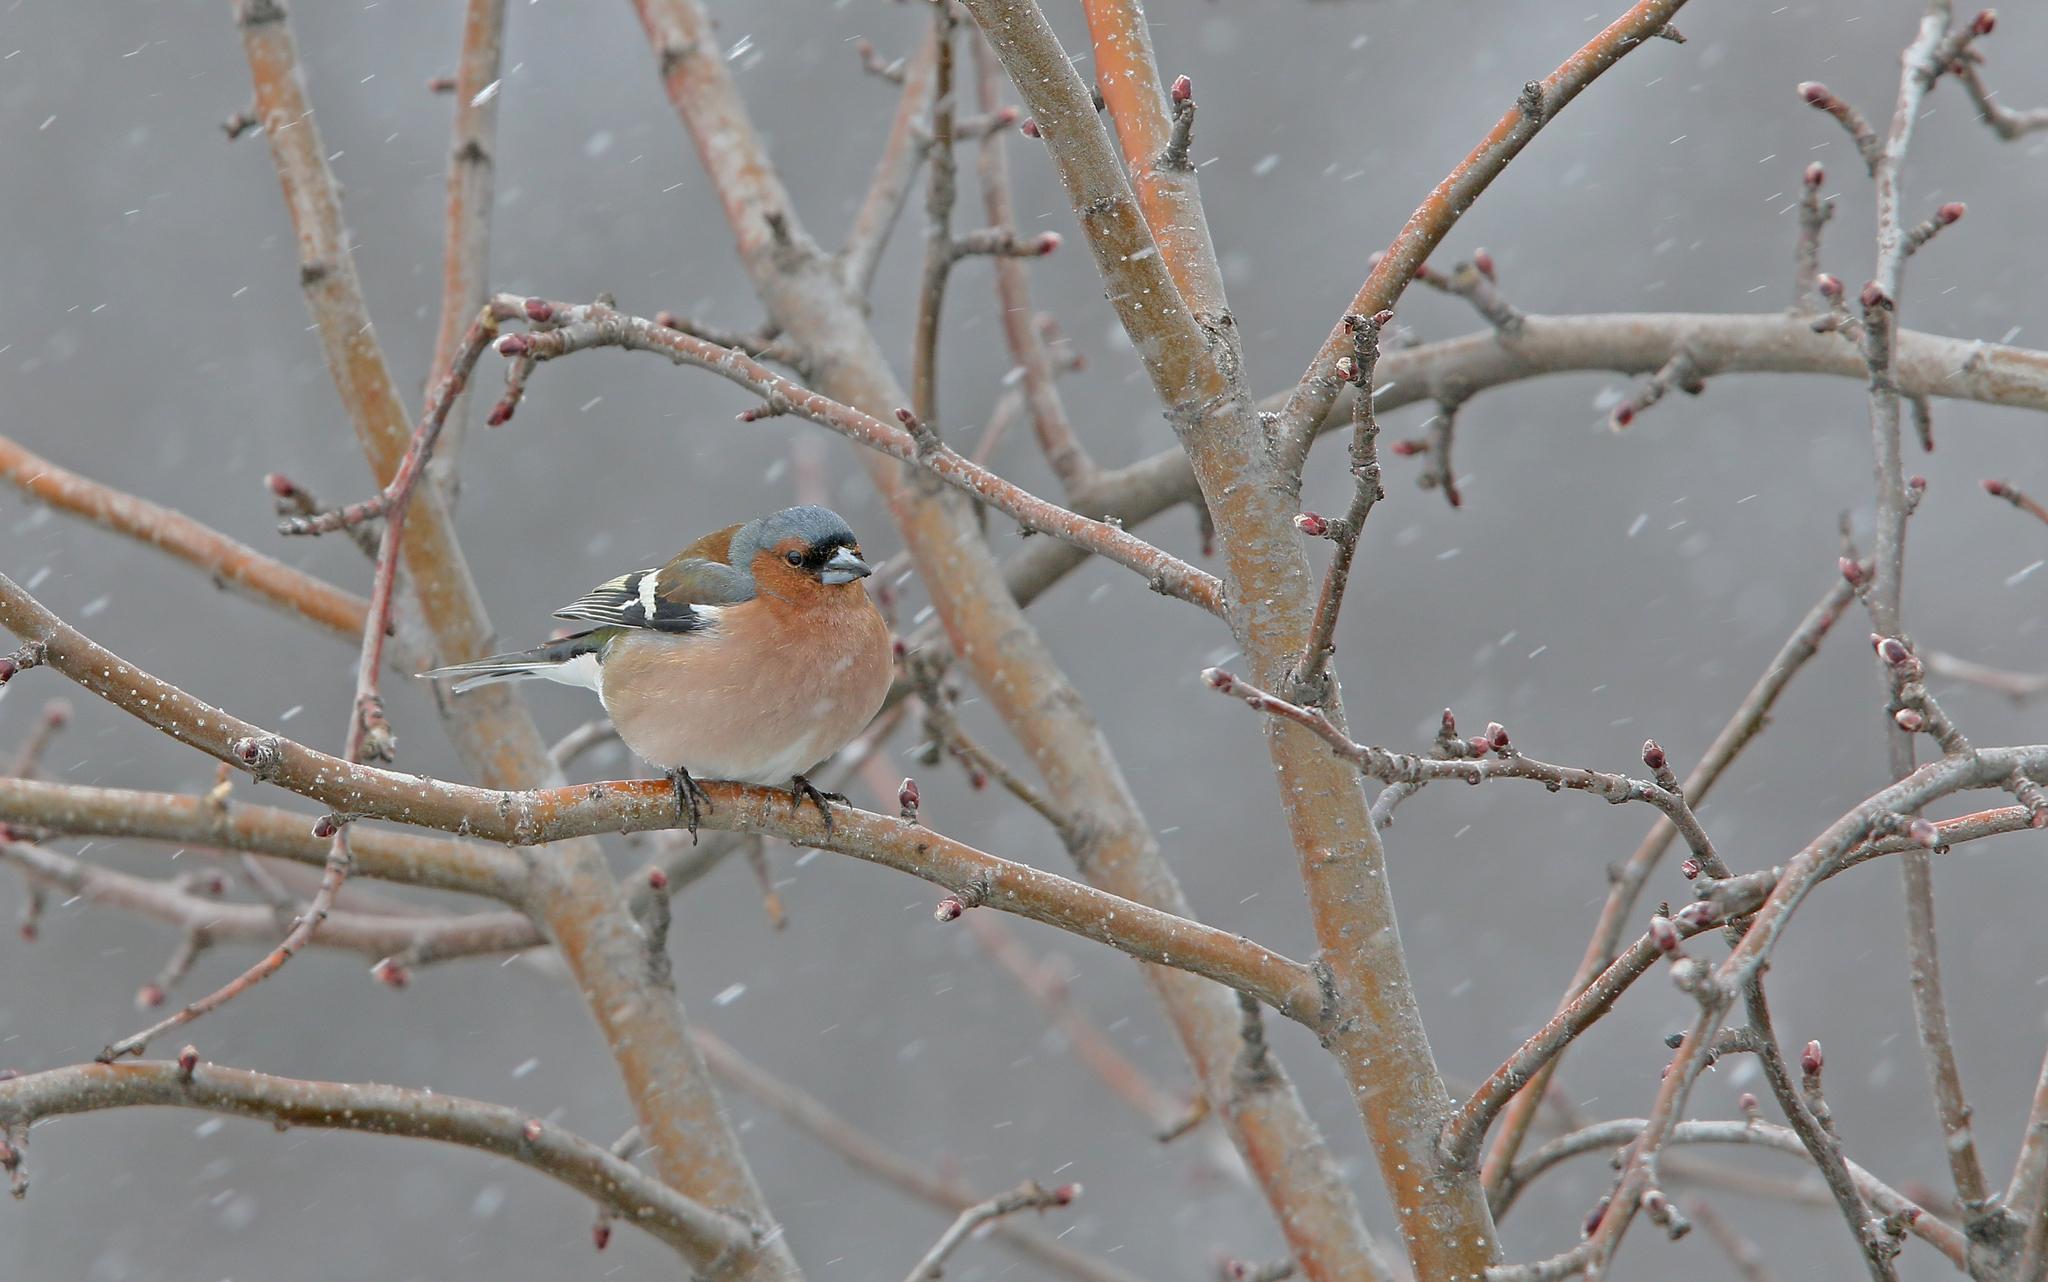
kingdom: Animalia
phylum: Chordata
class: Aves
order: Passeriformes
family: Fringillidae
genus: Fringilla
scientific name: Fringilla coelebs
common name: Common chaffinch
